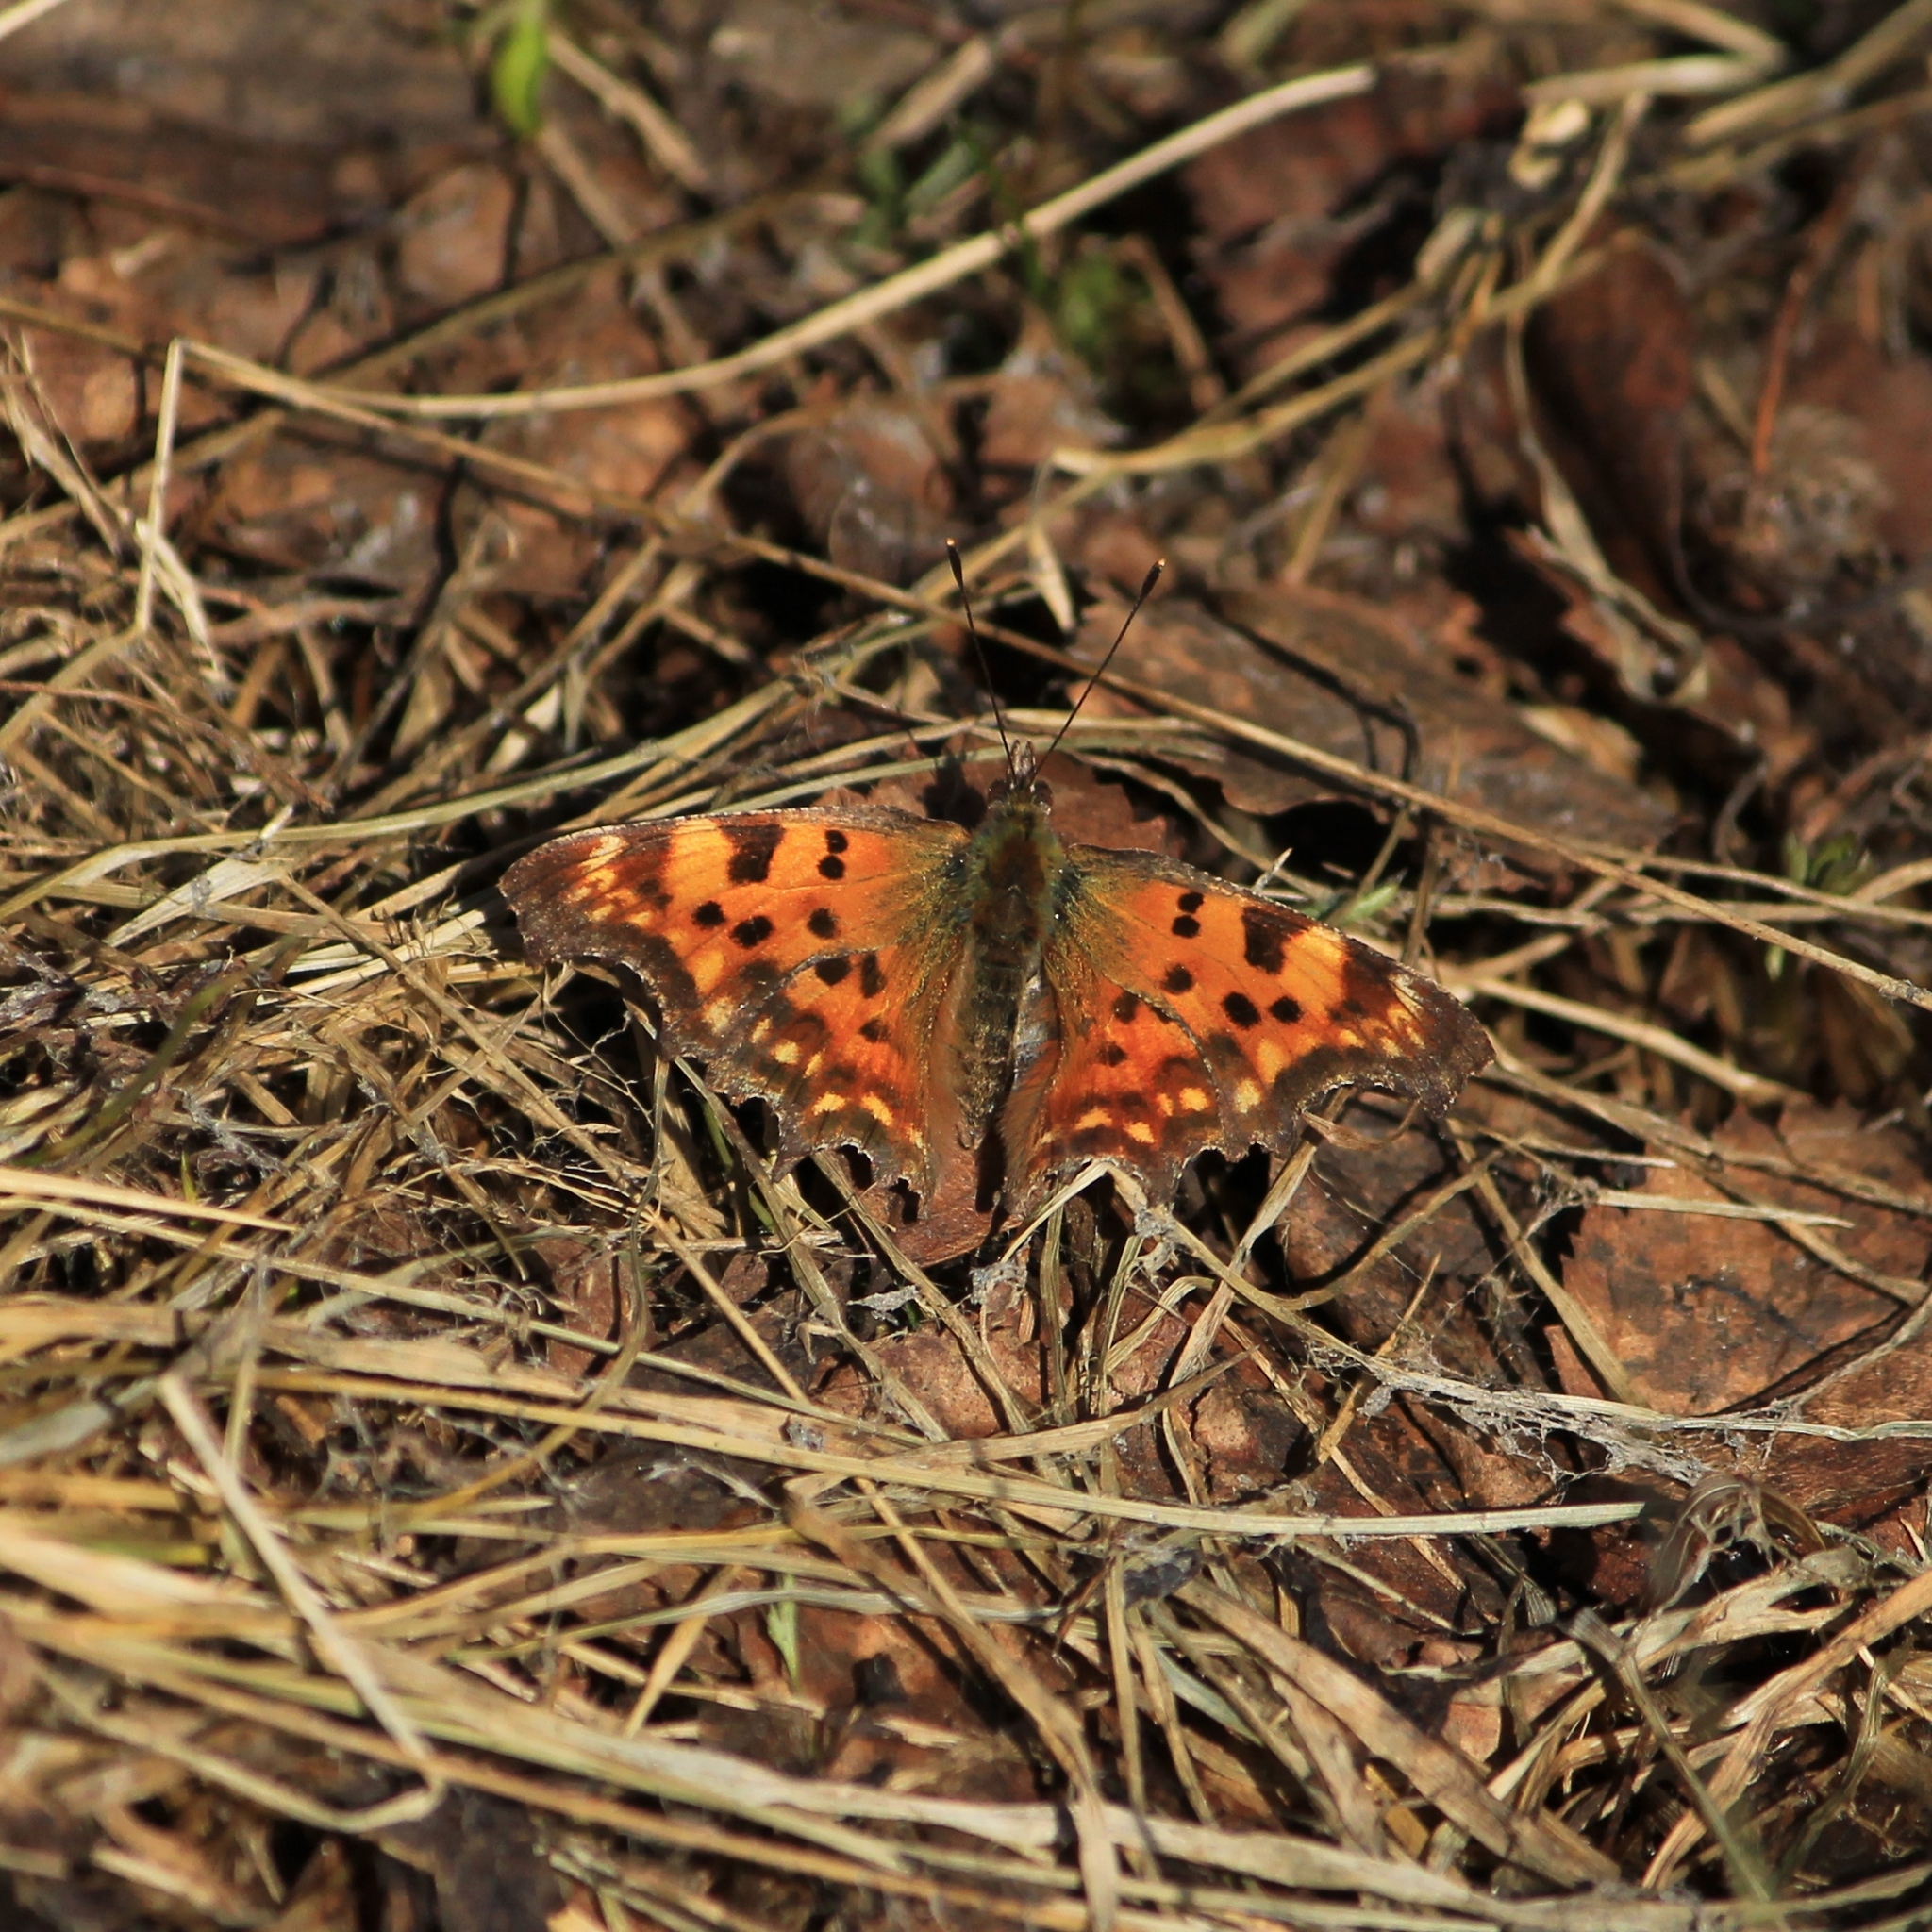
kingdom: Animalia
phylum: Arthropoda
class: Insecta
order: Lepidoptera
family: Nymphalidae
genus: Polygonia
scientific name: Polygonia c-album
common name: Comma
